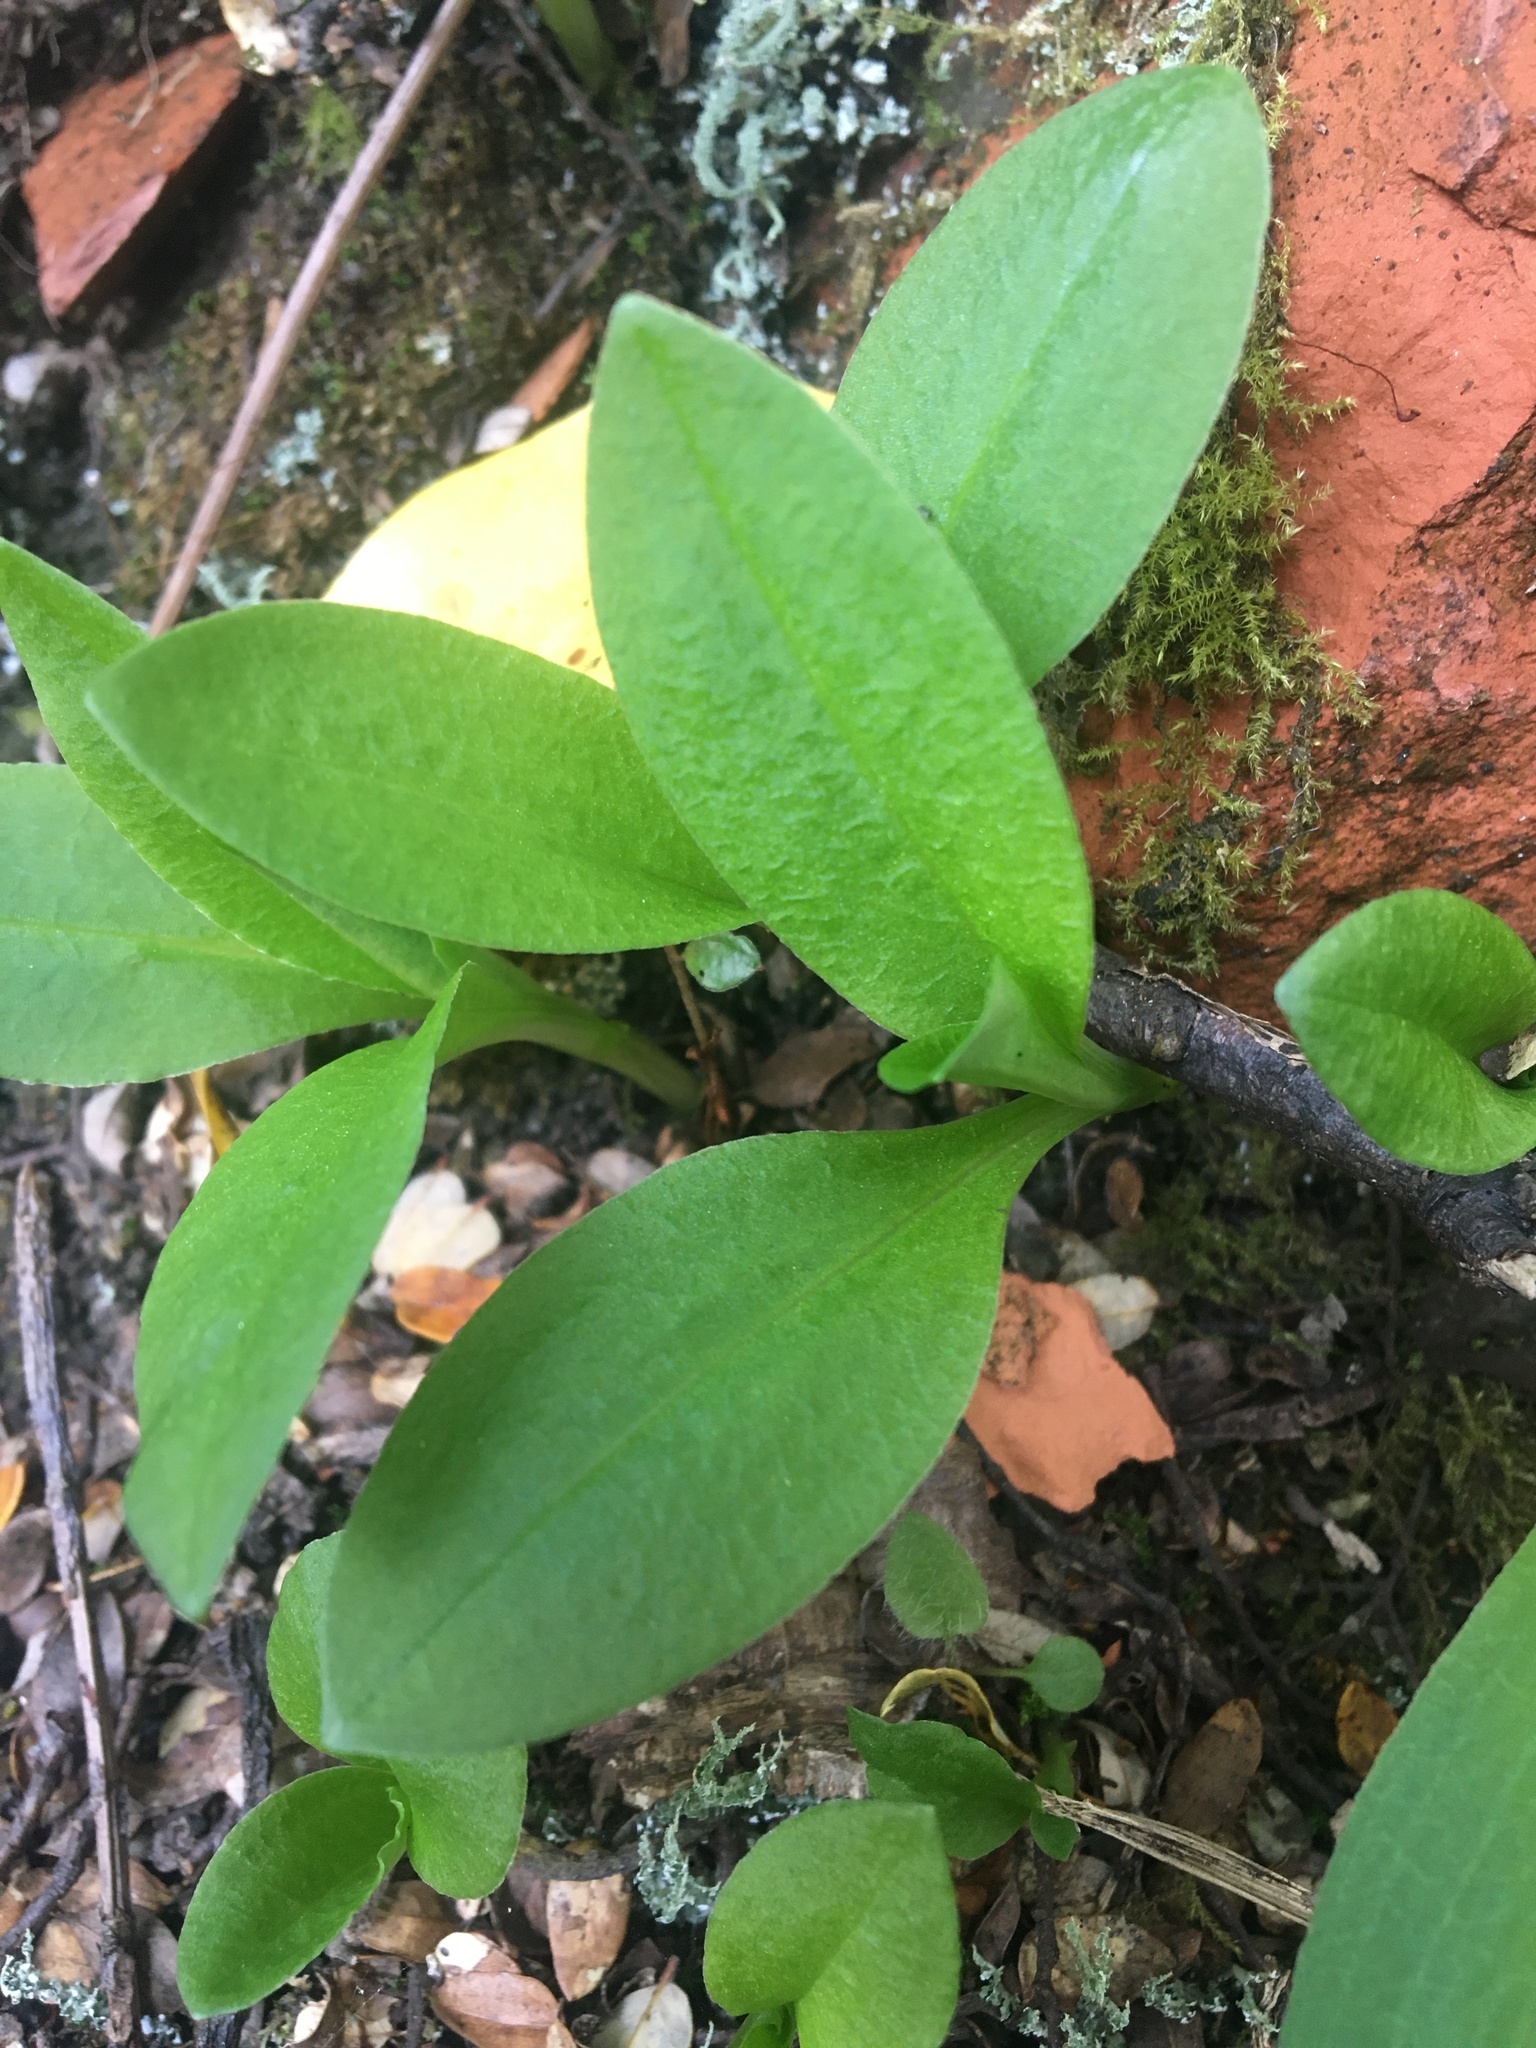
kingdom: Plantae
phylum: Tracheophyta
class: Liliopsida
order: Asparagales
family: Orchidaceae
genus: Pterostylis
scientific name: Pterostylis oliveri
